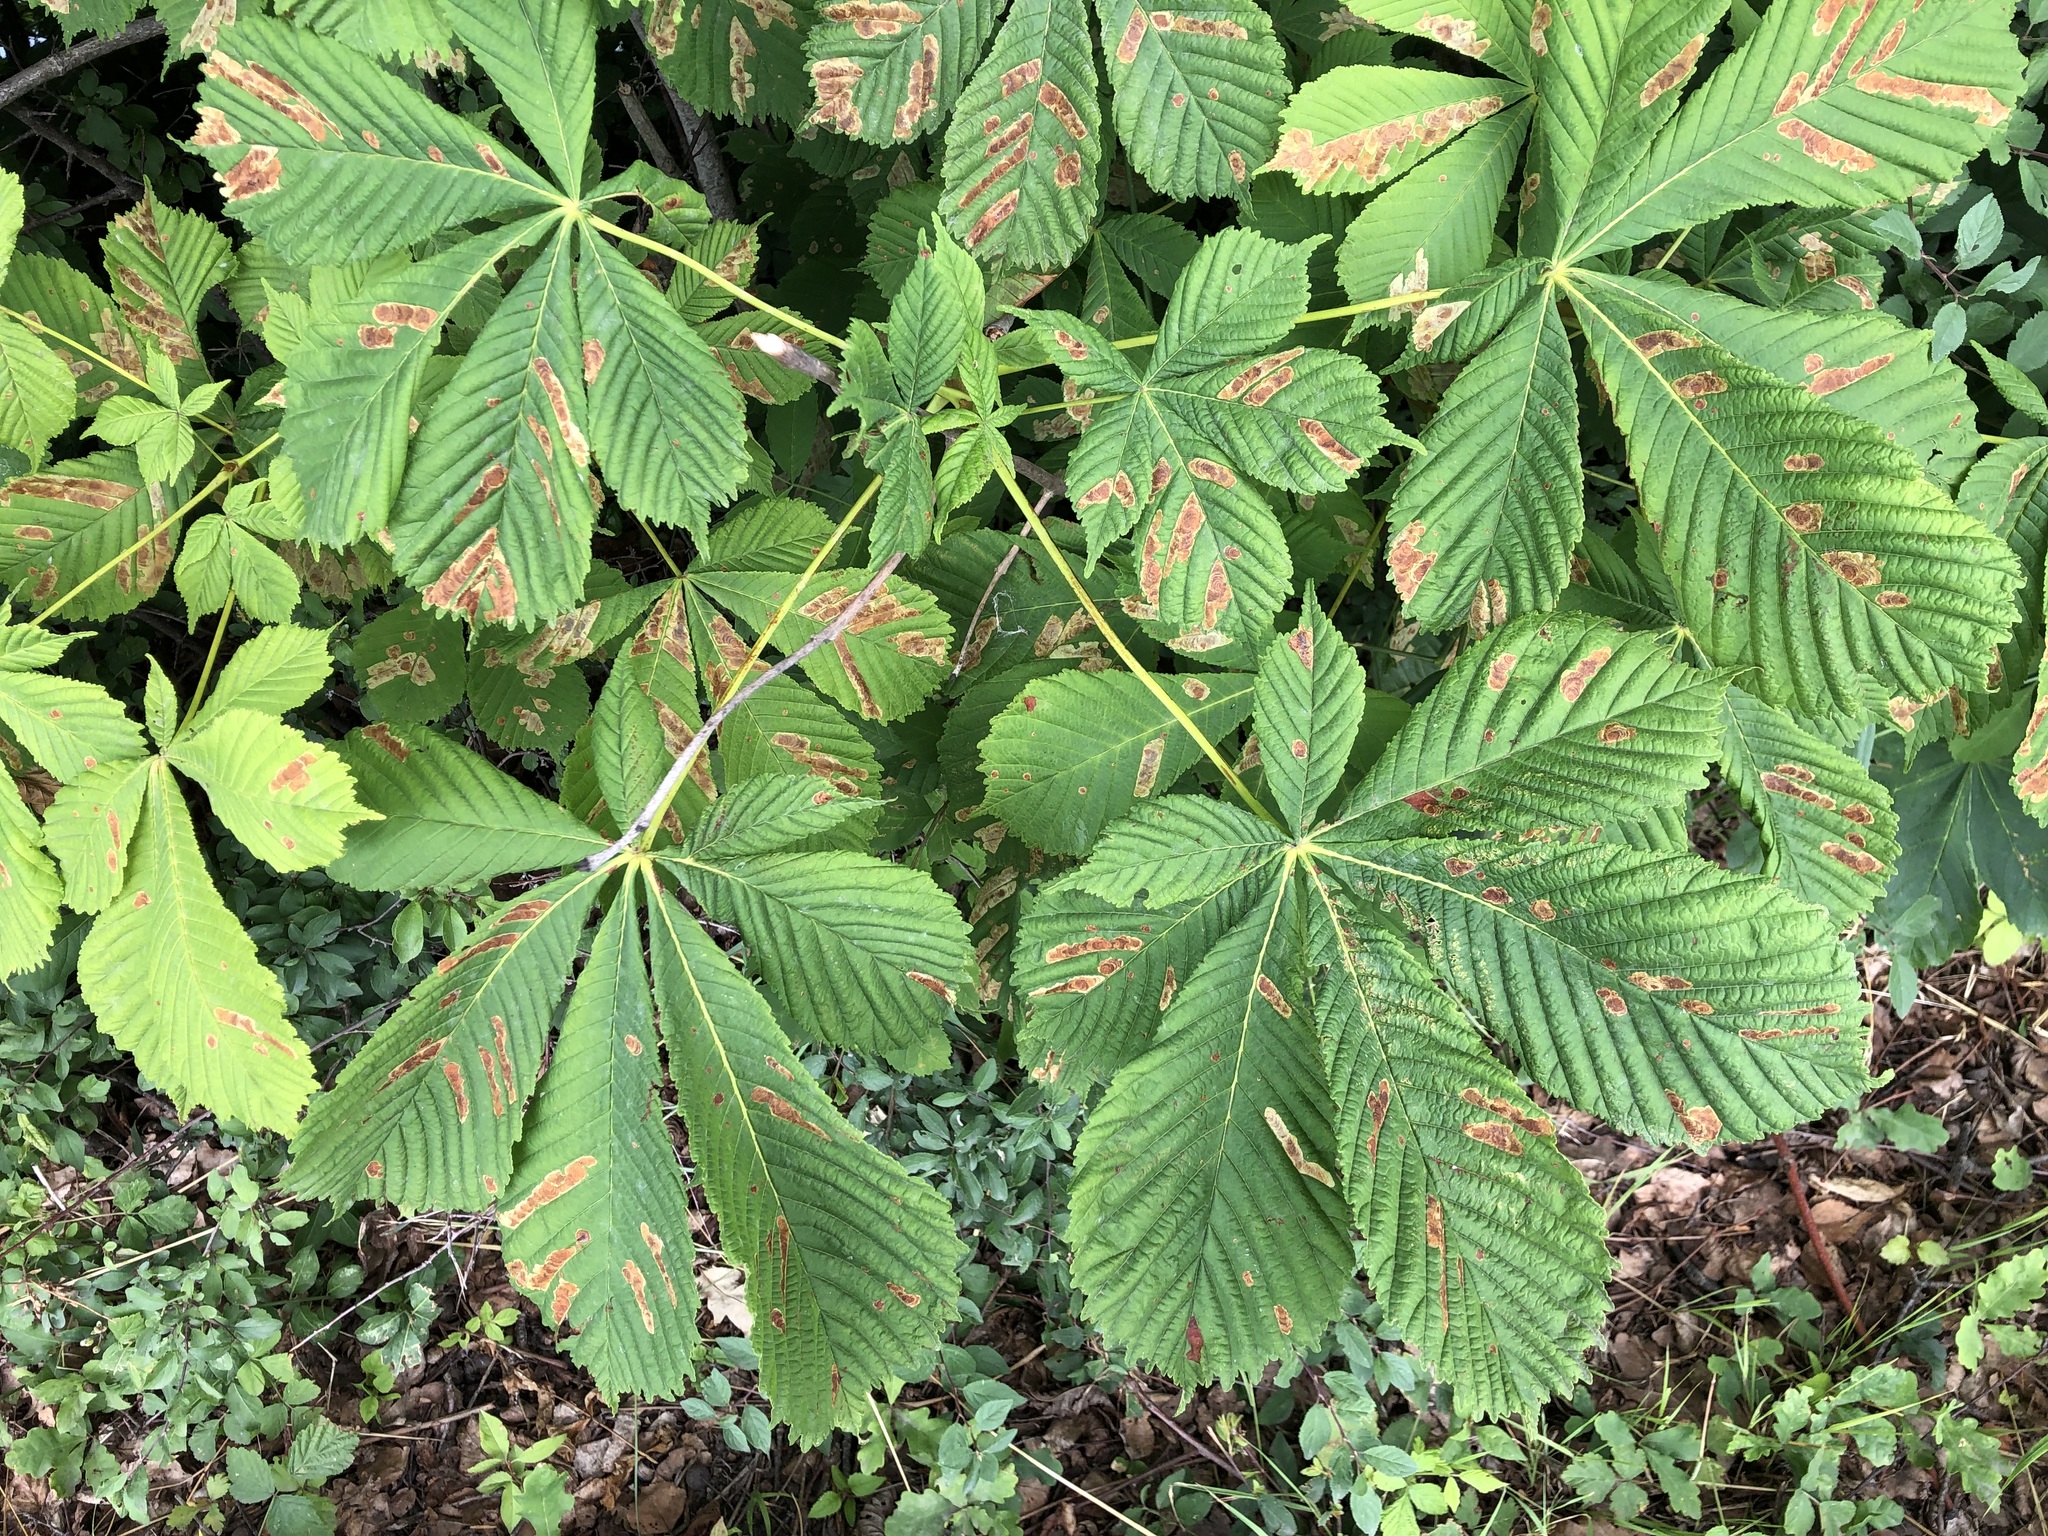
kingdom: Plantae
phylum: Tracheophyta
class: Magnoliopsida
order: Sapindales
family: Sapindaceae
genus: Aesculus
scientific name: Aesculus hippocastanum
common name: Horse-chestnut
